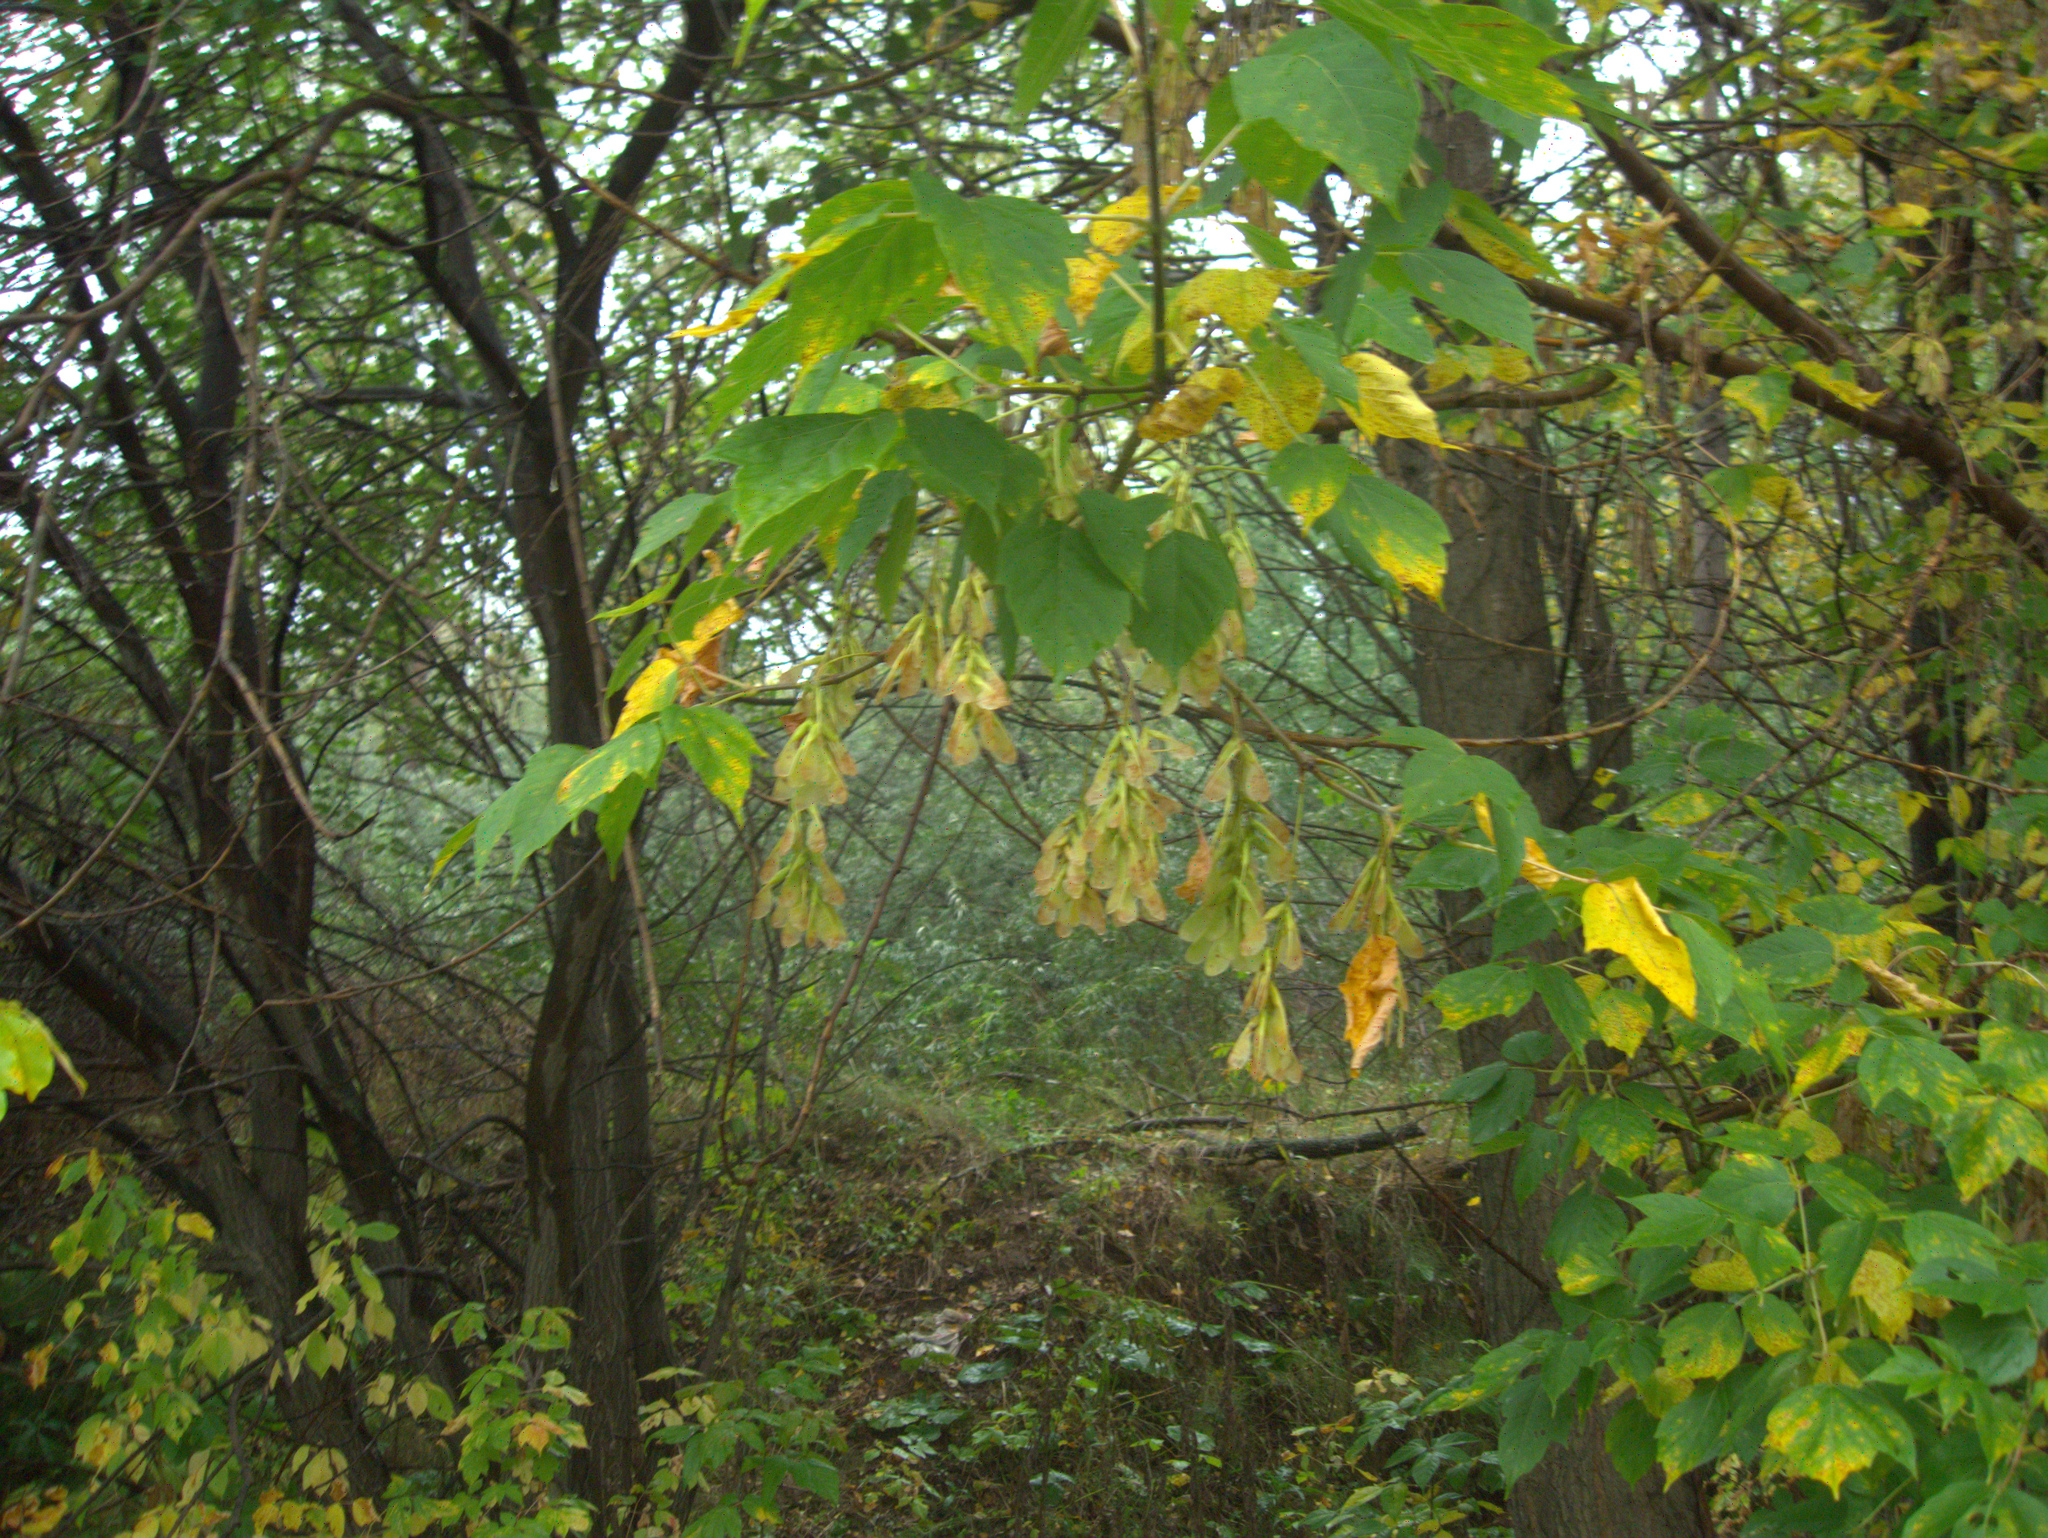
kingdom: Plantae
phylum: Tracheophyta
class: Magnoliopsida
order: Sapindales
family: Sapindaceae
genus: Acer
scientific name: Acer negundo
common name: Ashleaf maple
